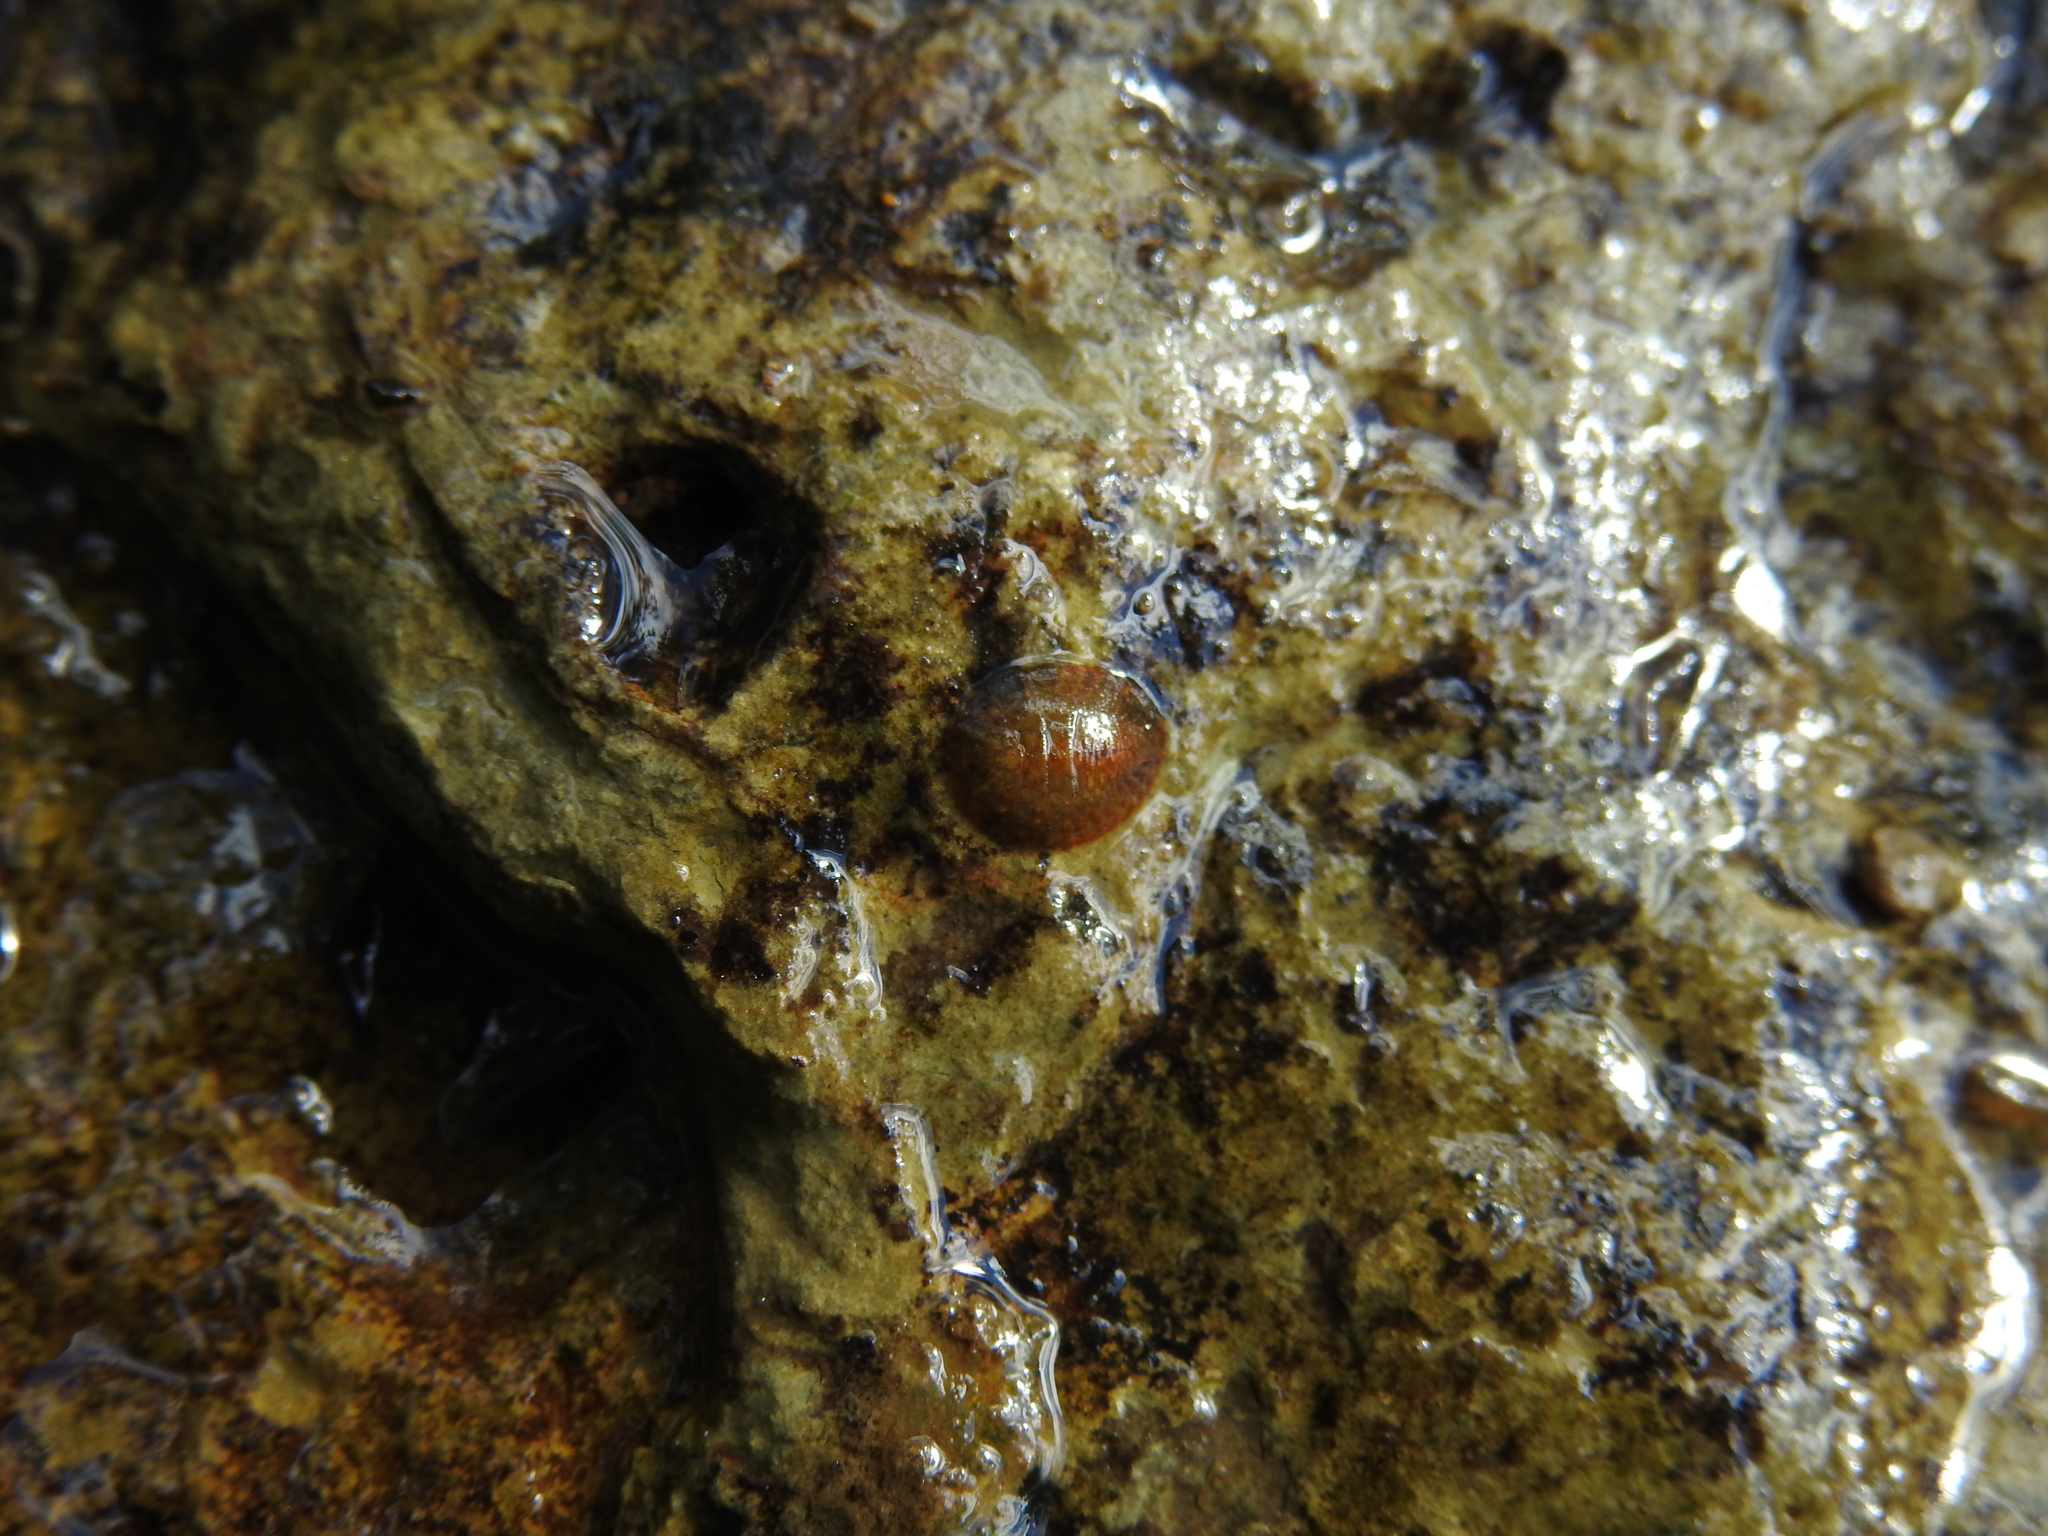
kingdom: Animalia
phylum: Arthropoda
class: Insecta
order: Coleoptera
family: Psephenidae
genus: Psephenus
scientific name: Psephenus herricki
